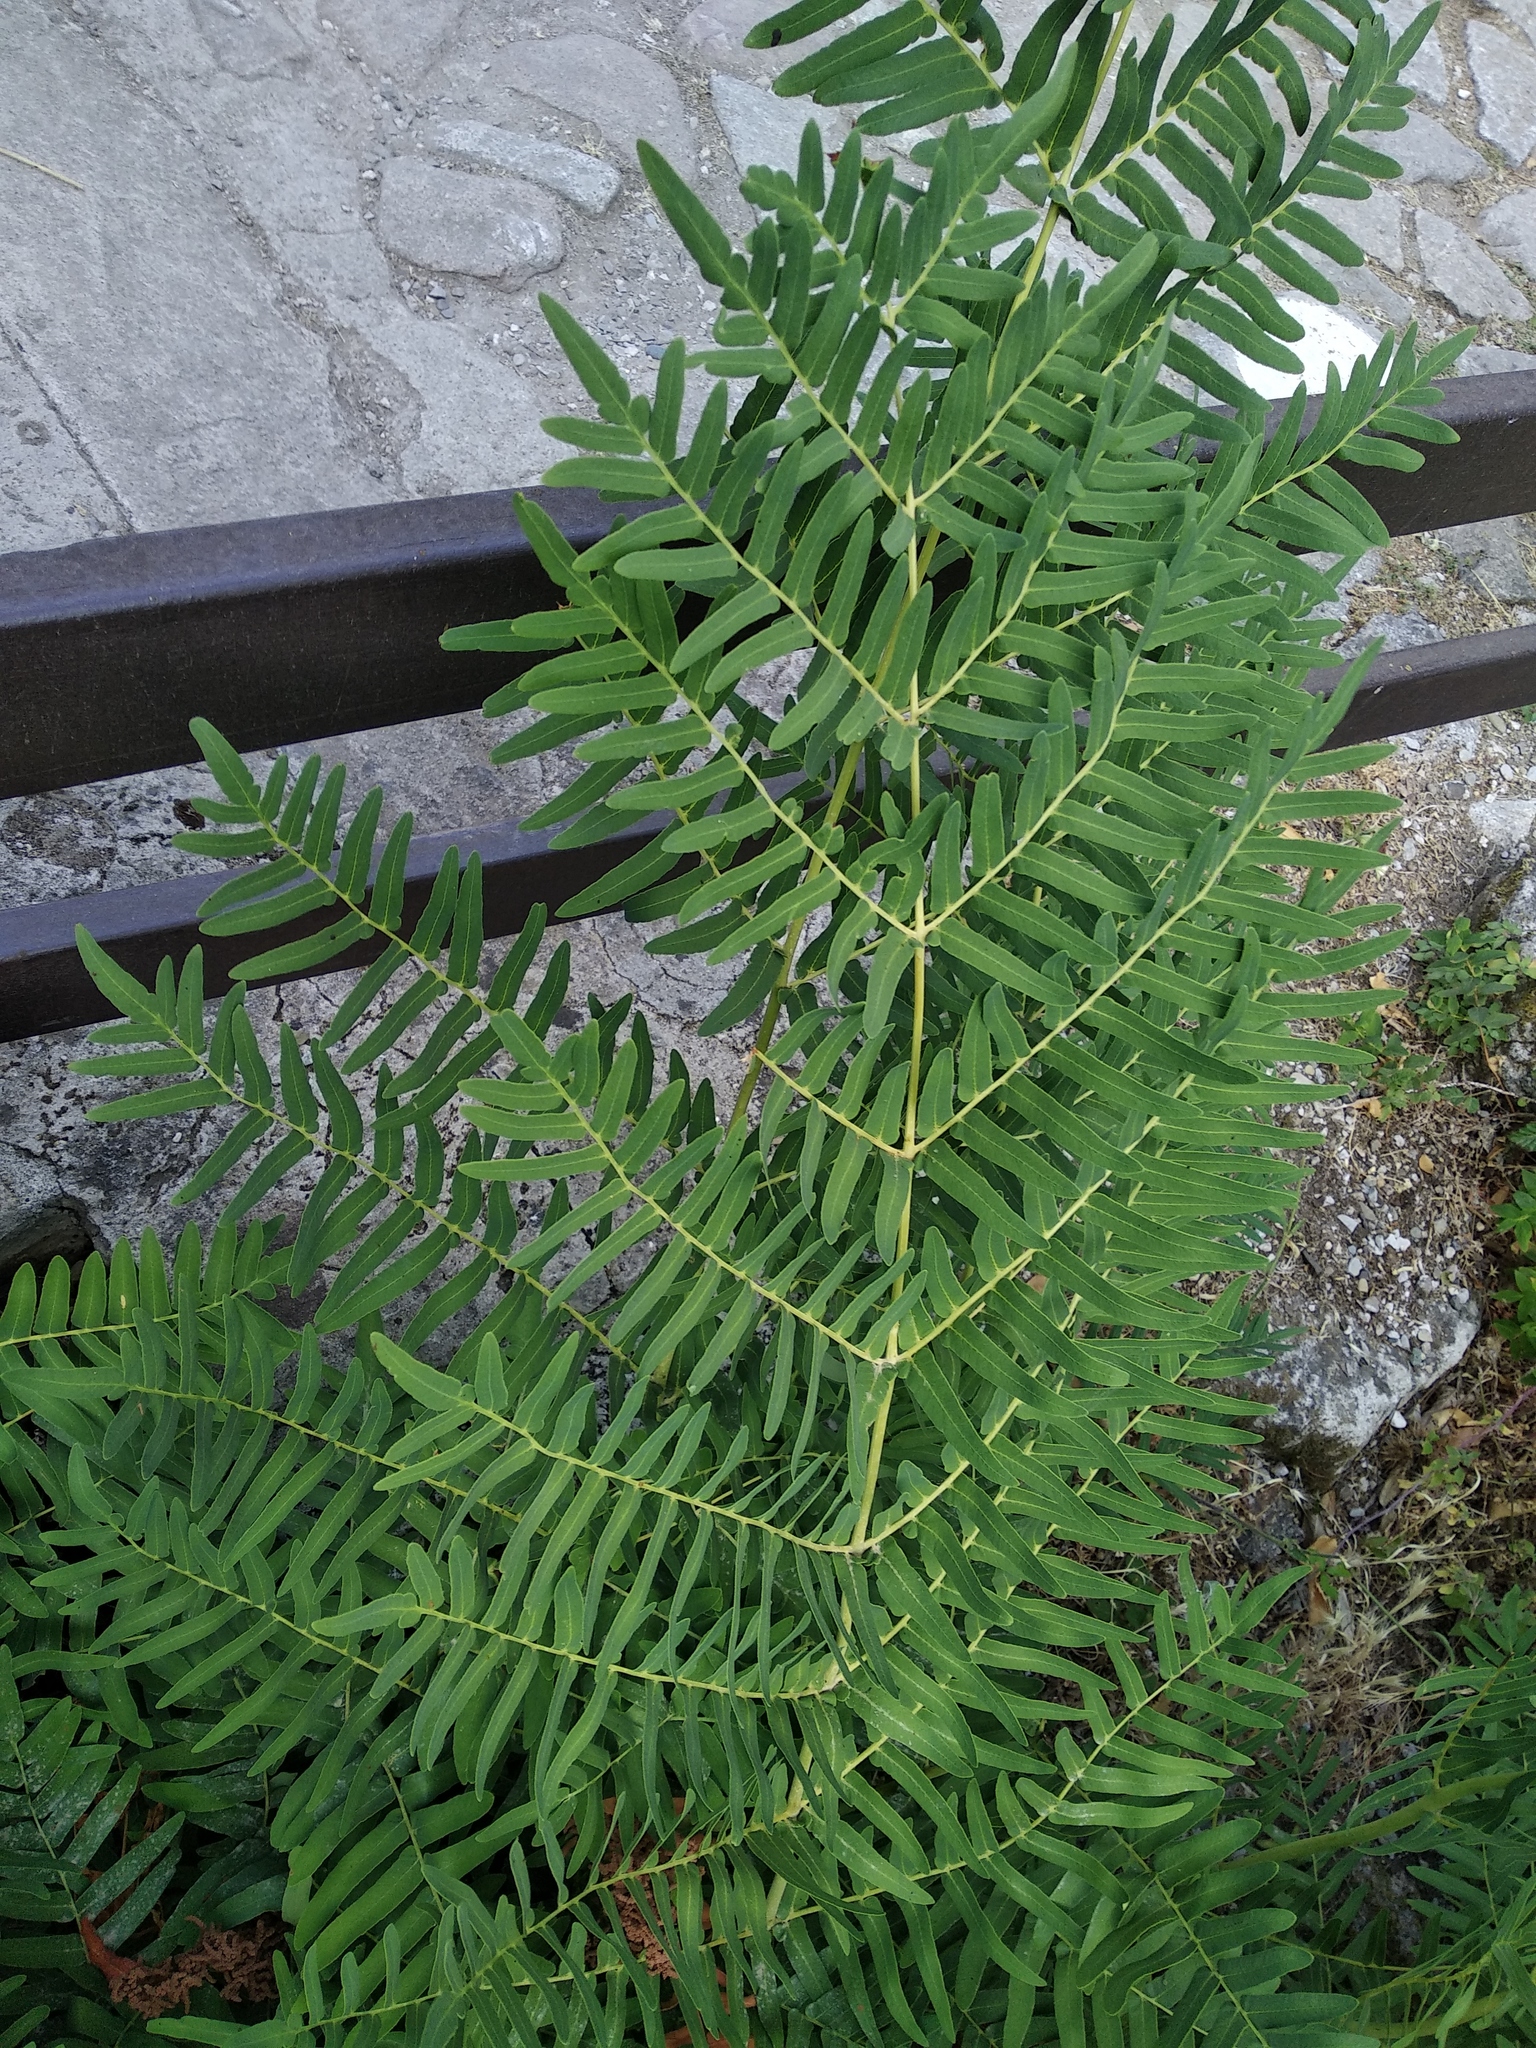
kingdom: Plantae
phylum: Tracheophyta
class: Polypodiopsida
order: Osmundales
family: Osmundaceae
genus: Osmunda
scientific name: Osmunda regalis
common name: Royal fern
